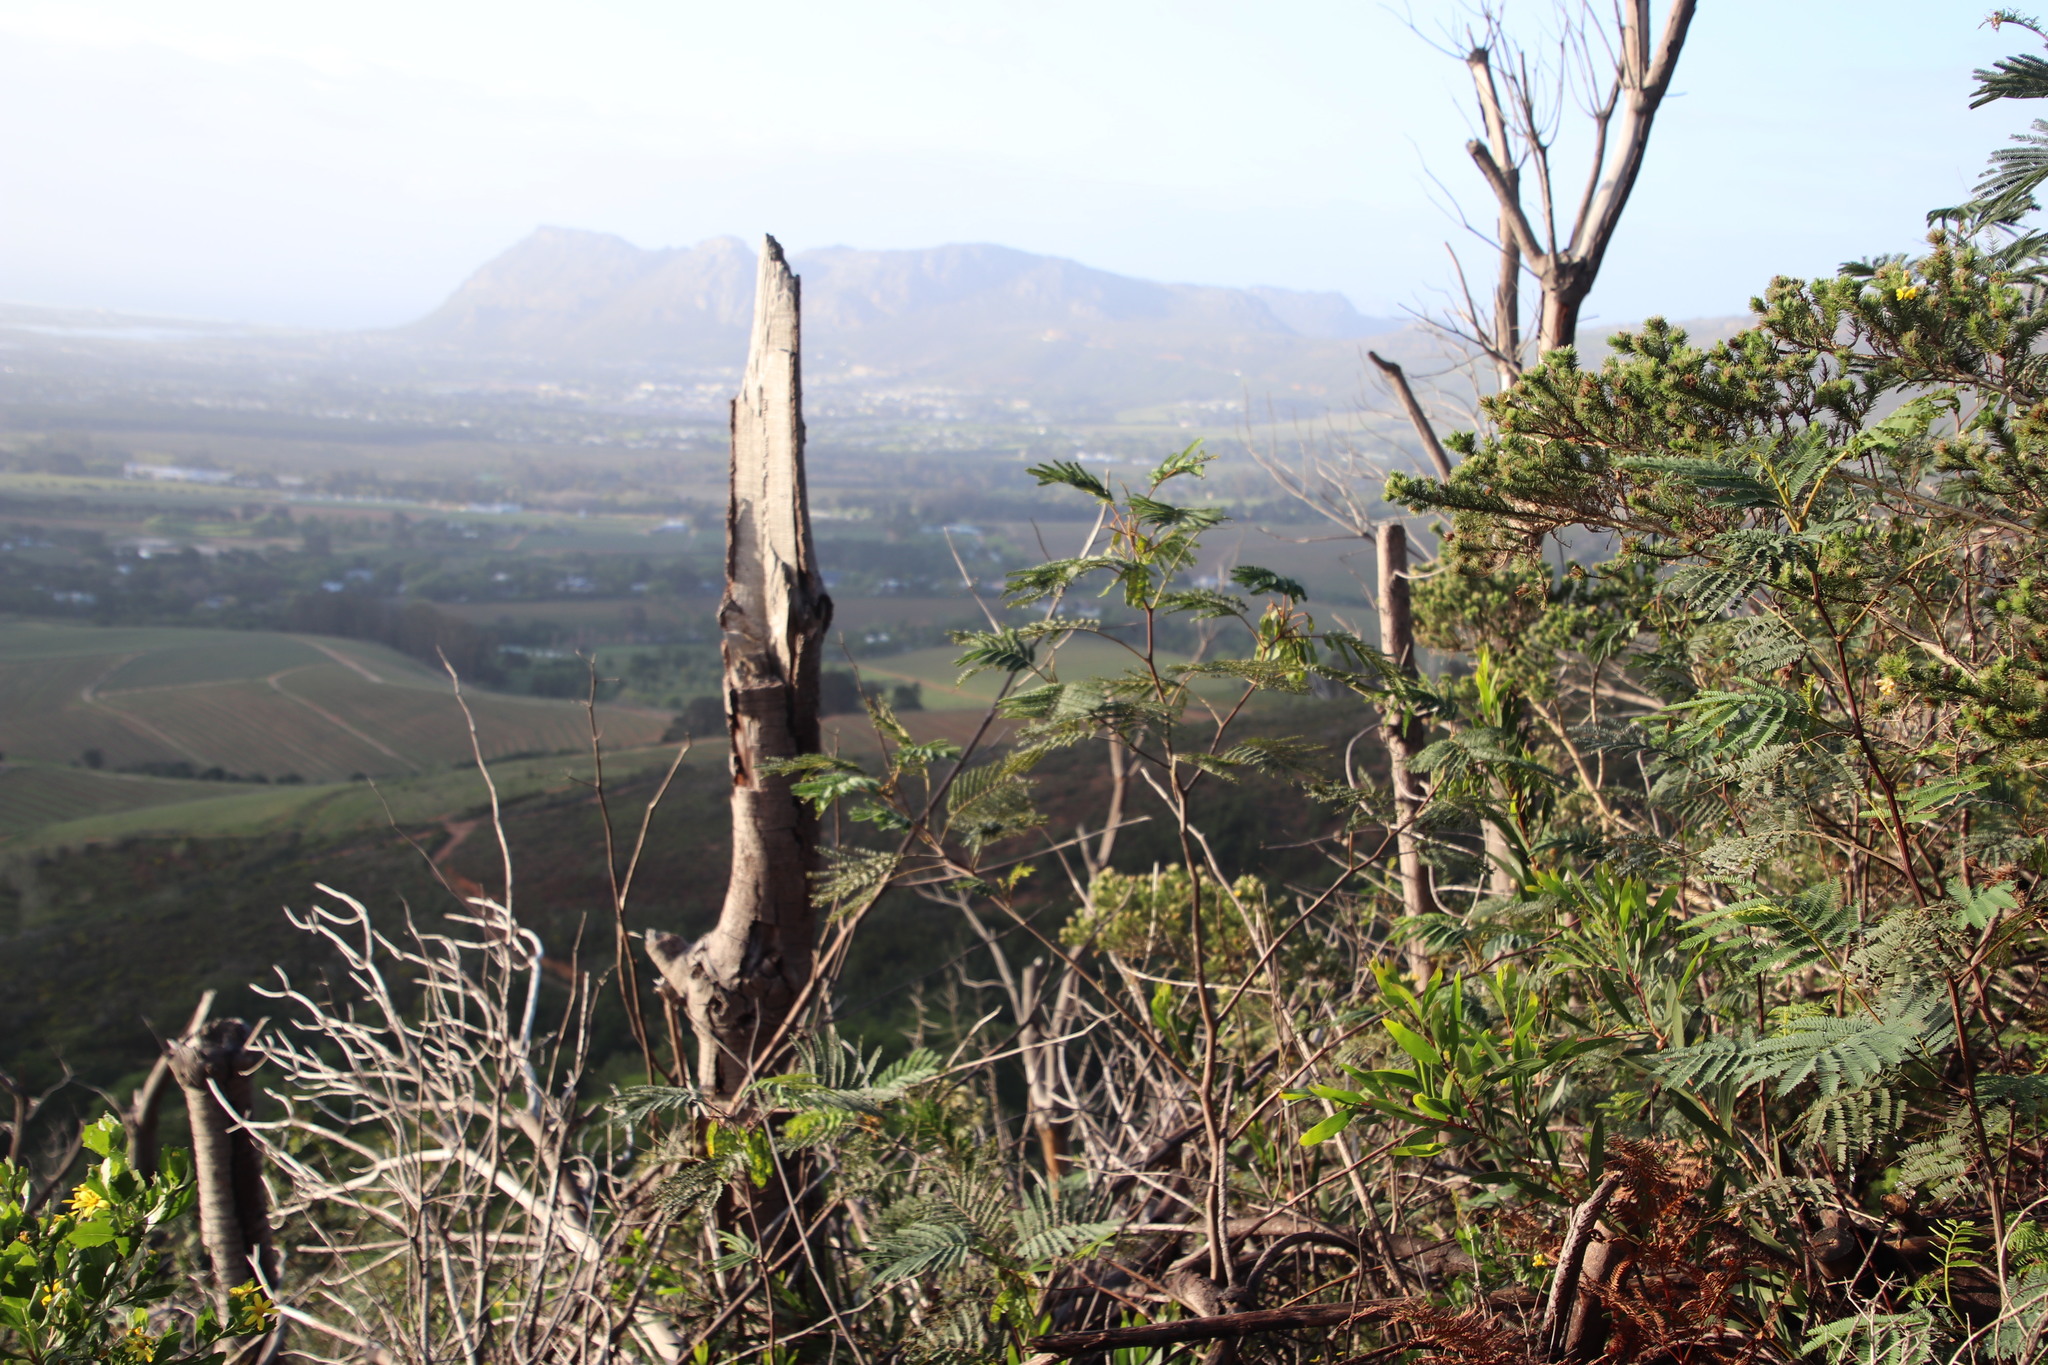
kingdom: Plantae
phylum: Tracheophyta
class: Magnoliopsida
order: Fabales
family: Fabaceae
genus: Paraserianthes
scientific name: Paraserianthes lophantha
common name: Plume albizia
